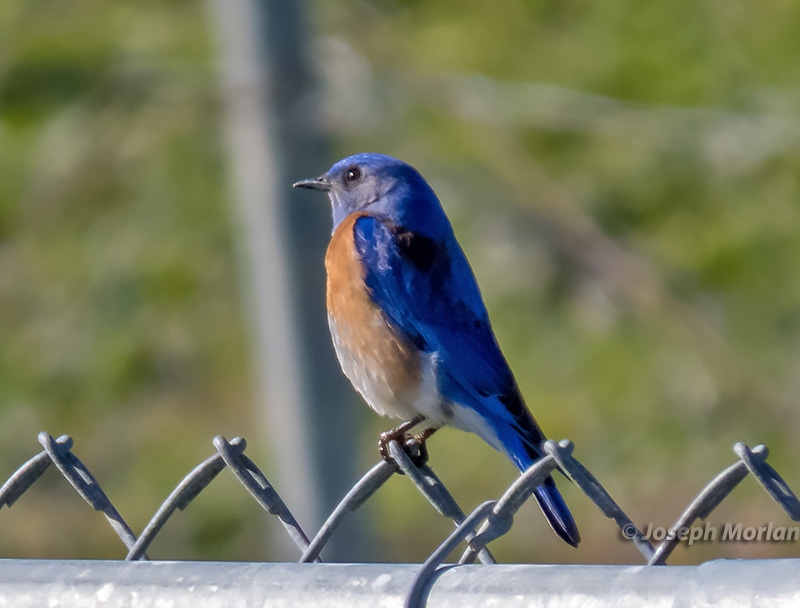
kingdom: Animalia
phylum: Chordata
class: Aves
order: Passeriformes
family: Turdidae
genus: Sialia
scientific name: Sialia mexicana
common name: Western bluebird
